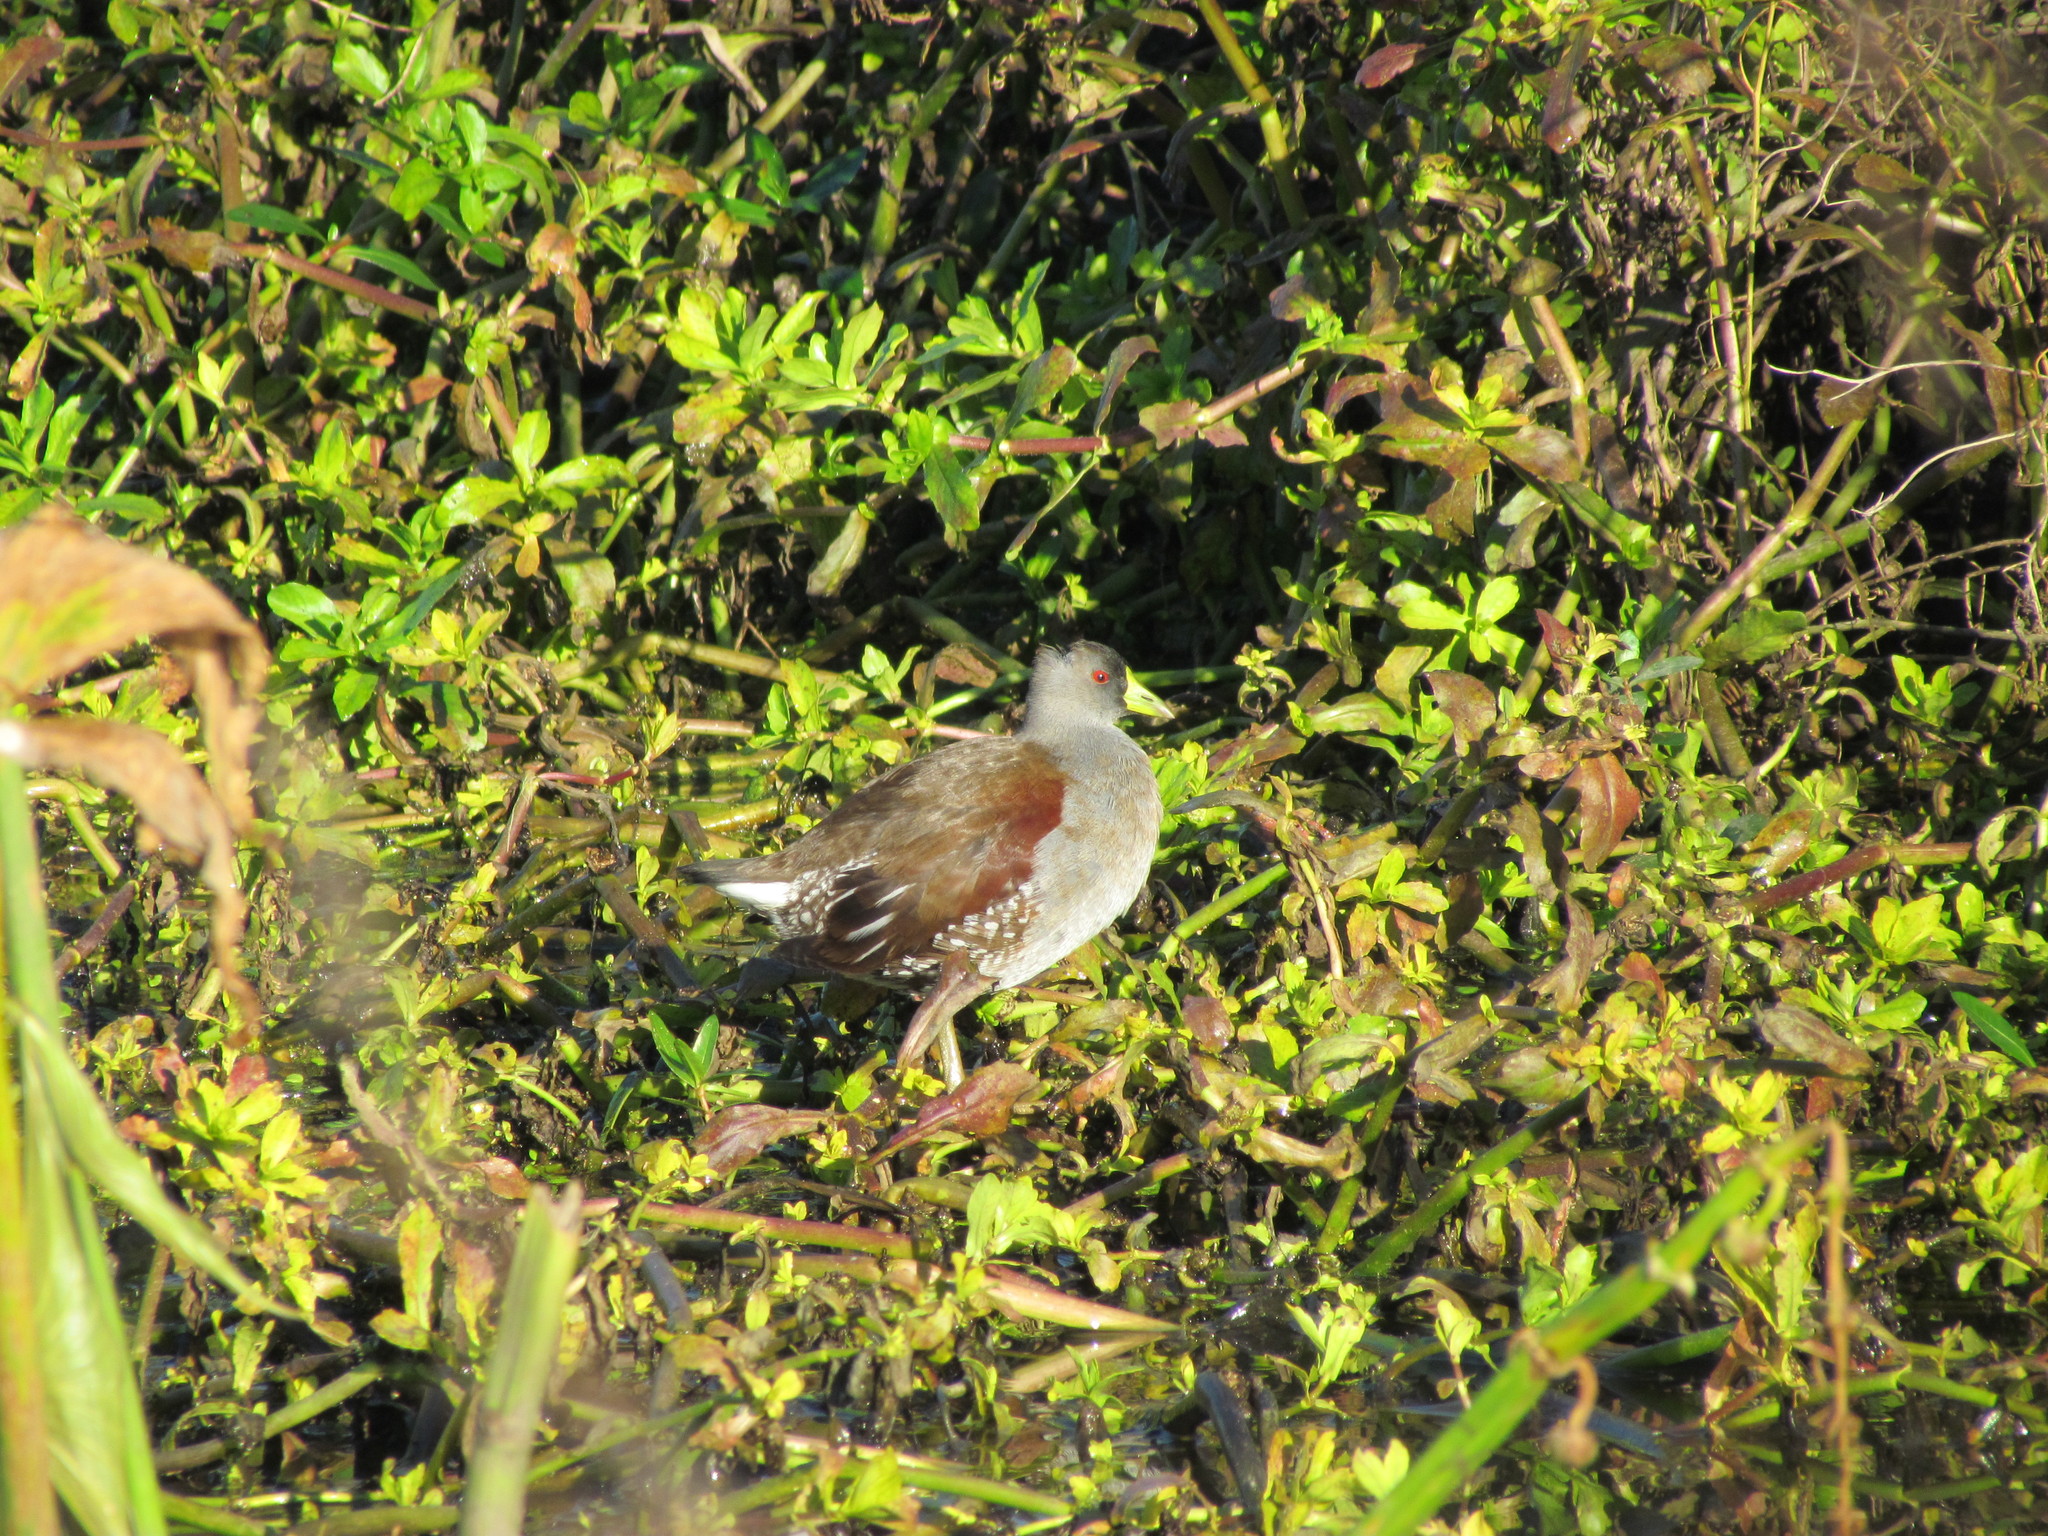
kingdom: Animalia
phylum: Chordata
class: Aves
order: Gruiformes
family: Rallidae
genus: Gallinula
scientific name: Gallinula melanops
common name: Spot-flanked gallinule
